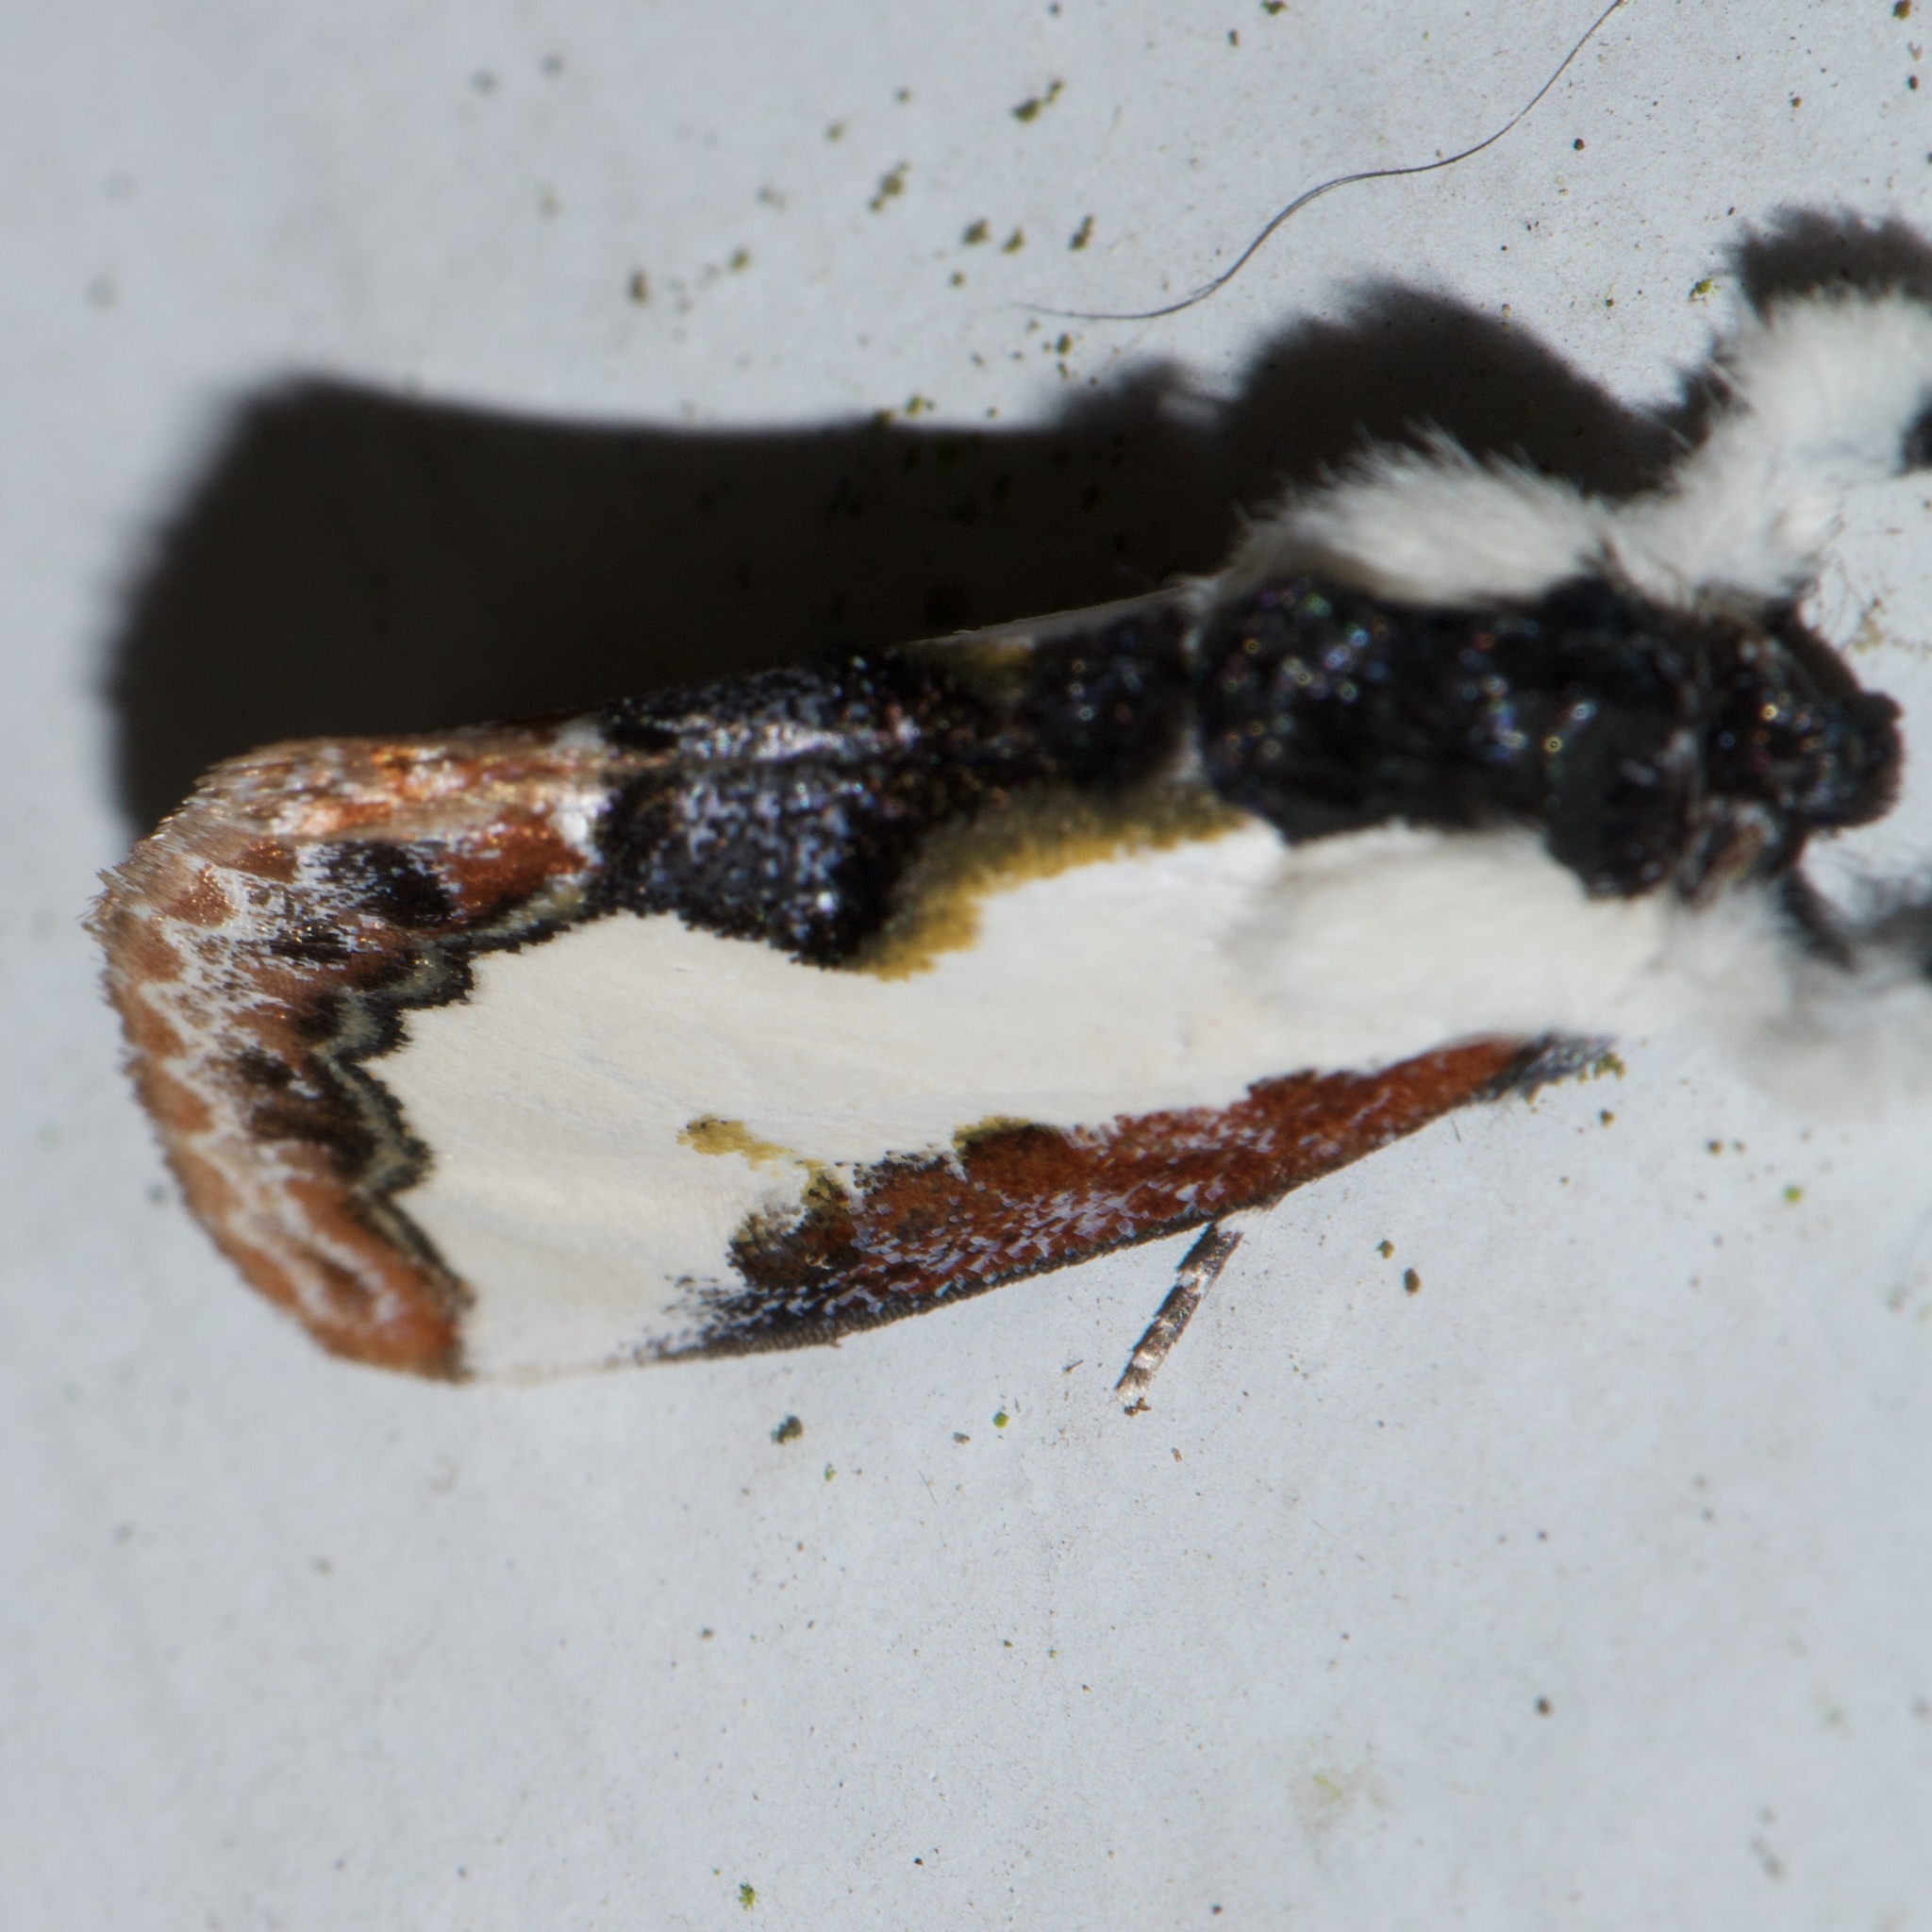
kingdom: Animalia
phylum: Arthropoda
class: Insecta
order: Lepidoptera
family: Noctuidae
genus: Eudryas
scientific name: Eudryas unio
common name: Pearly wood-nymph
